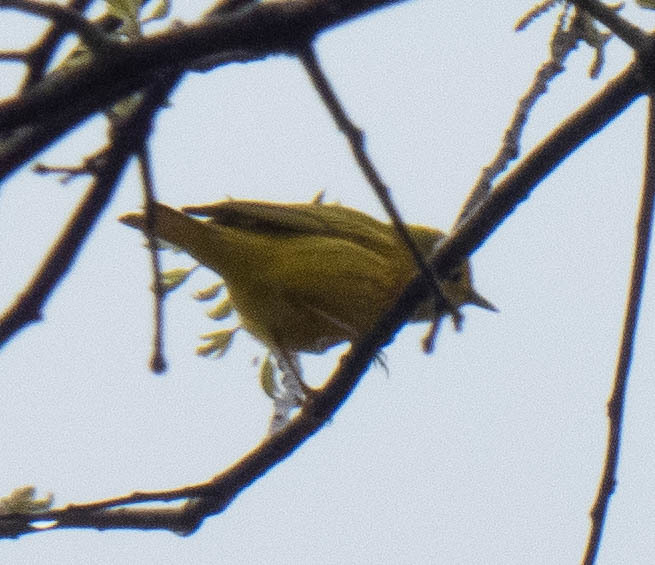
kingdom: Animalia
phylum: Chordata
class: Aves
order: Passeriformes
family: Parulidae
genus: Setophaga
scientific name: Setophaga petechia
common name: Yellow warbler
